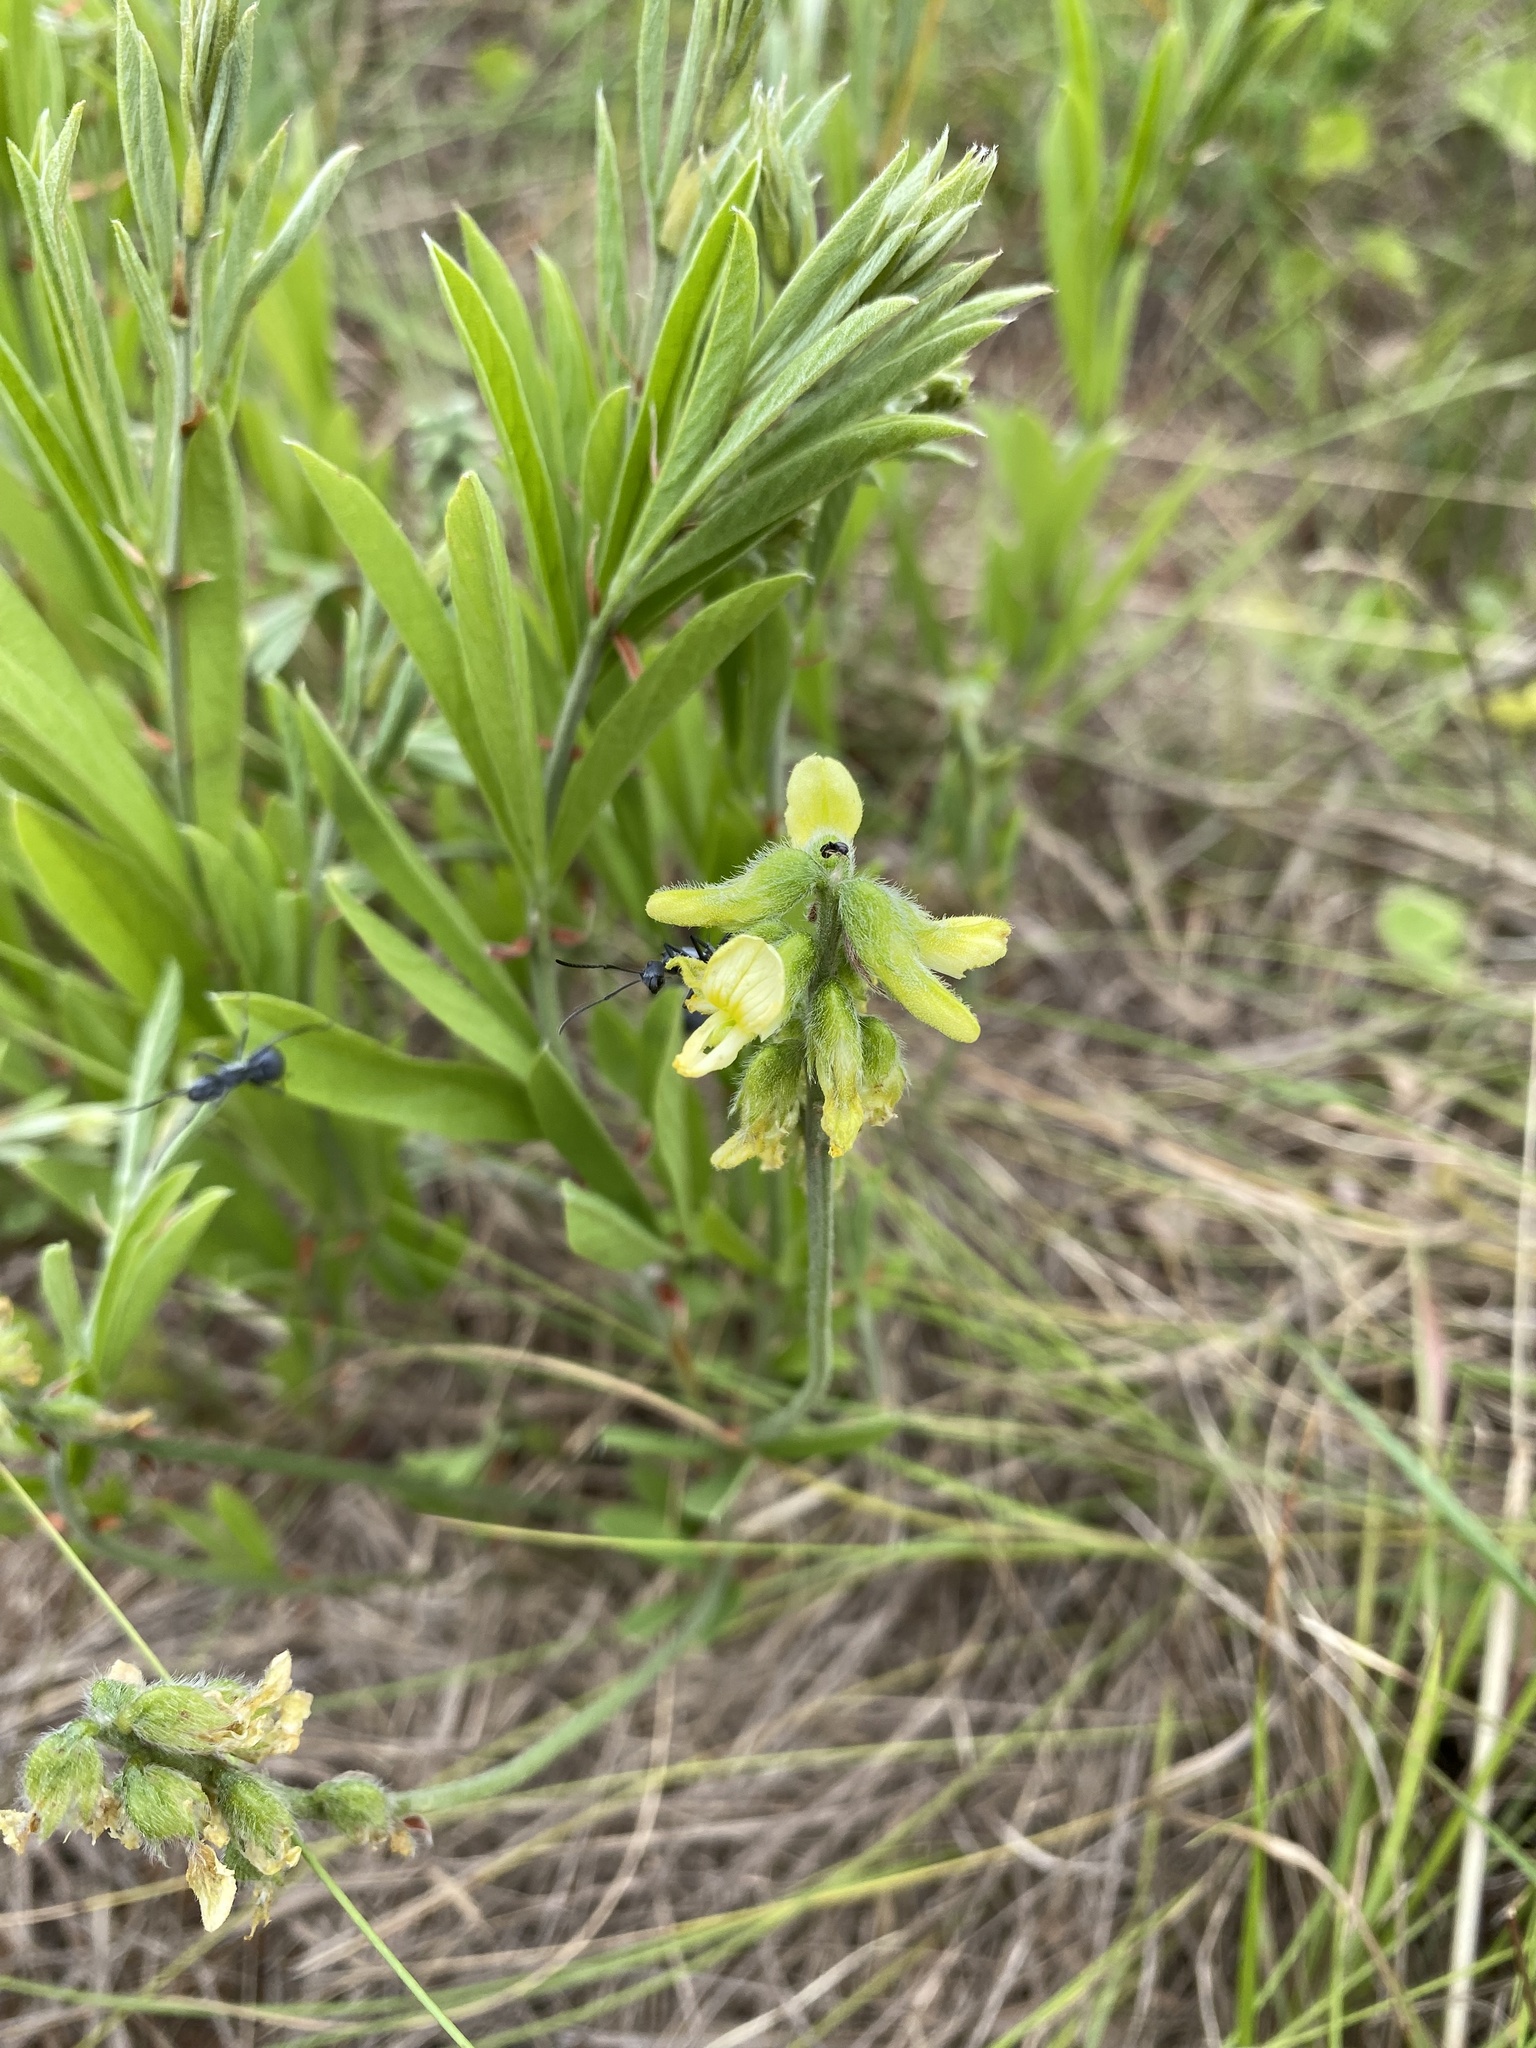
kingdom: Plantae
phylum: Tracheophyta
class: Magnoliopsida
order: Fabales
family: Fabaceae
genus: Eriosema
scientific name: Eriosema kraussianum
